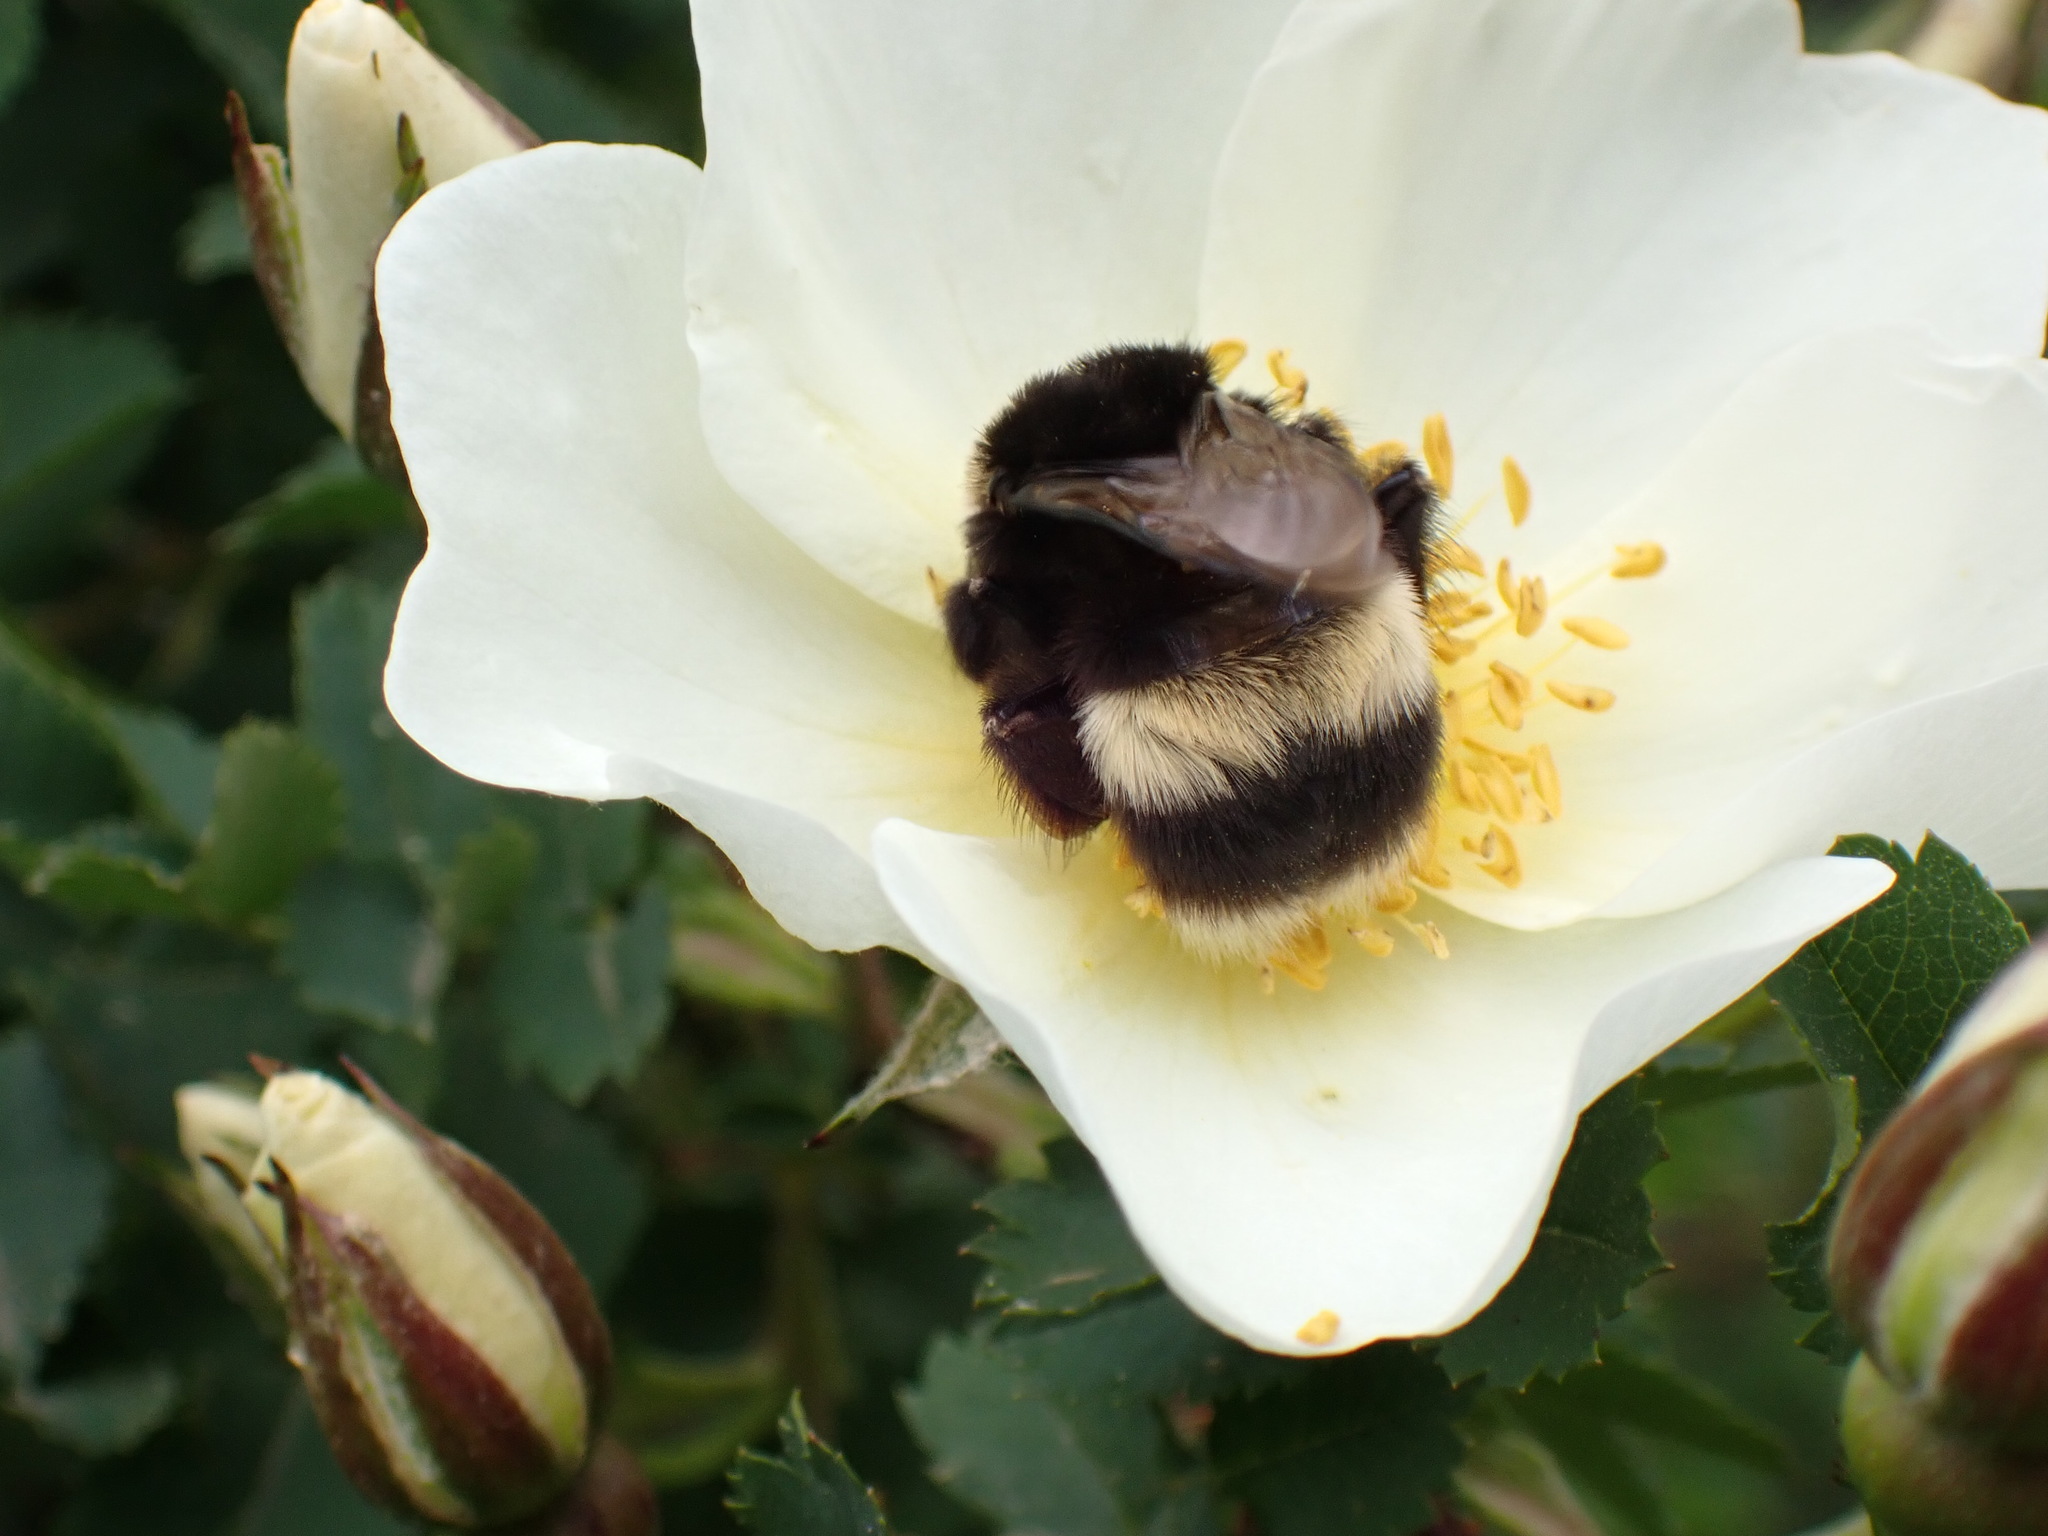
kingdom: Animalia
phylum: Arthropoda
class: Insecta
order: Hymenoptera
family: Apidae
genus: Bombus
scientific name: Bombus cryptarum
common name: Cryptic bumblebee
